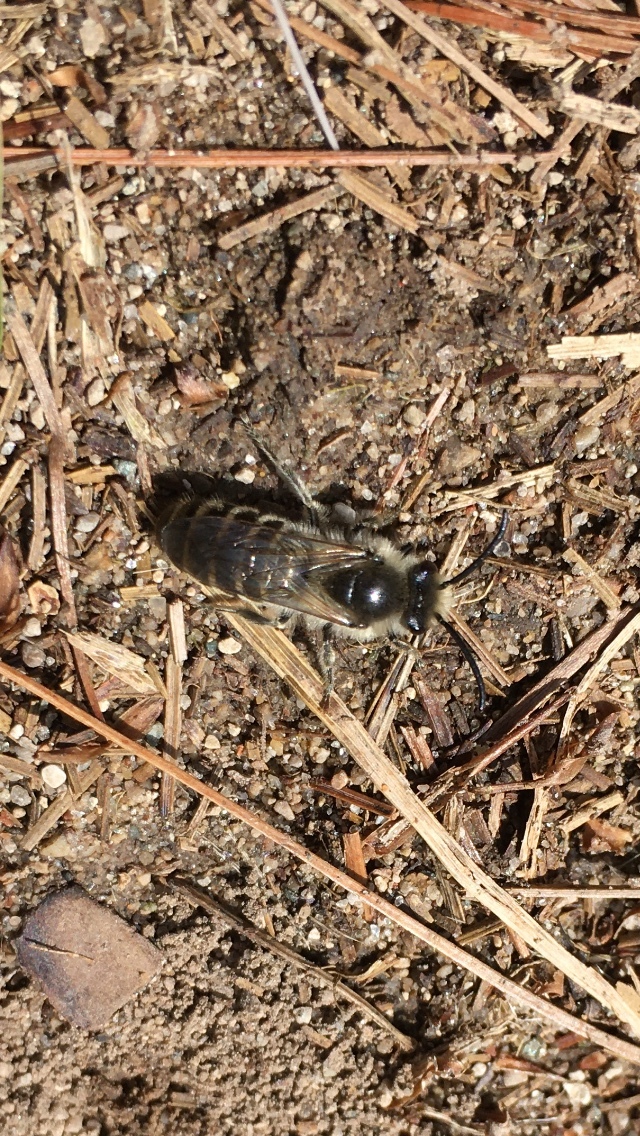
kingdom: Animalia
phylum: Arthropoda
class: Insecta
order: Hymenoptera
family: Colletidae
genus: Colletes
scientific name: Colletes inaequalis
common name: Unequal cellophane bee
